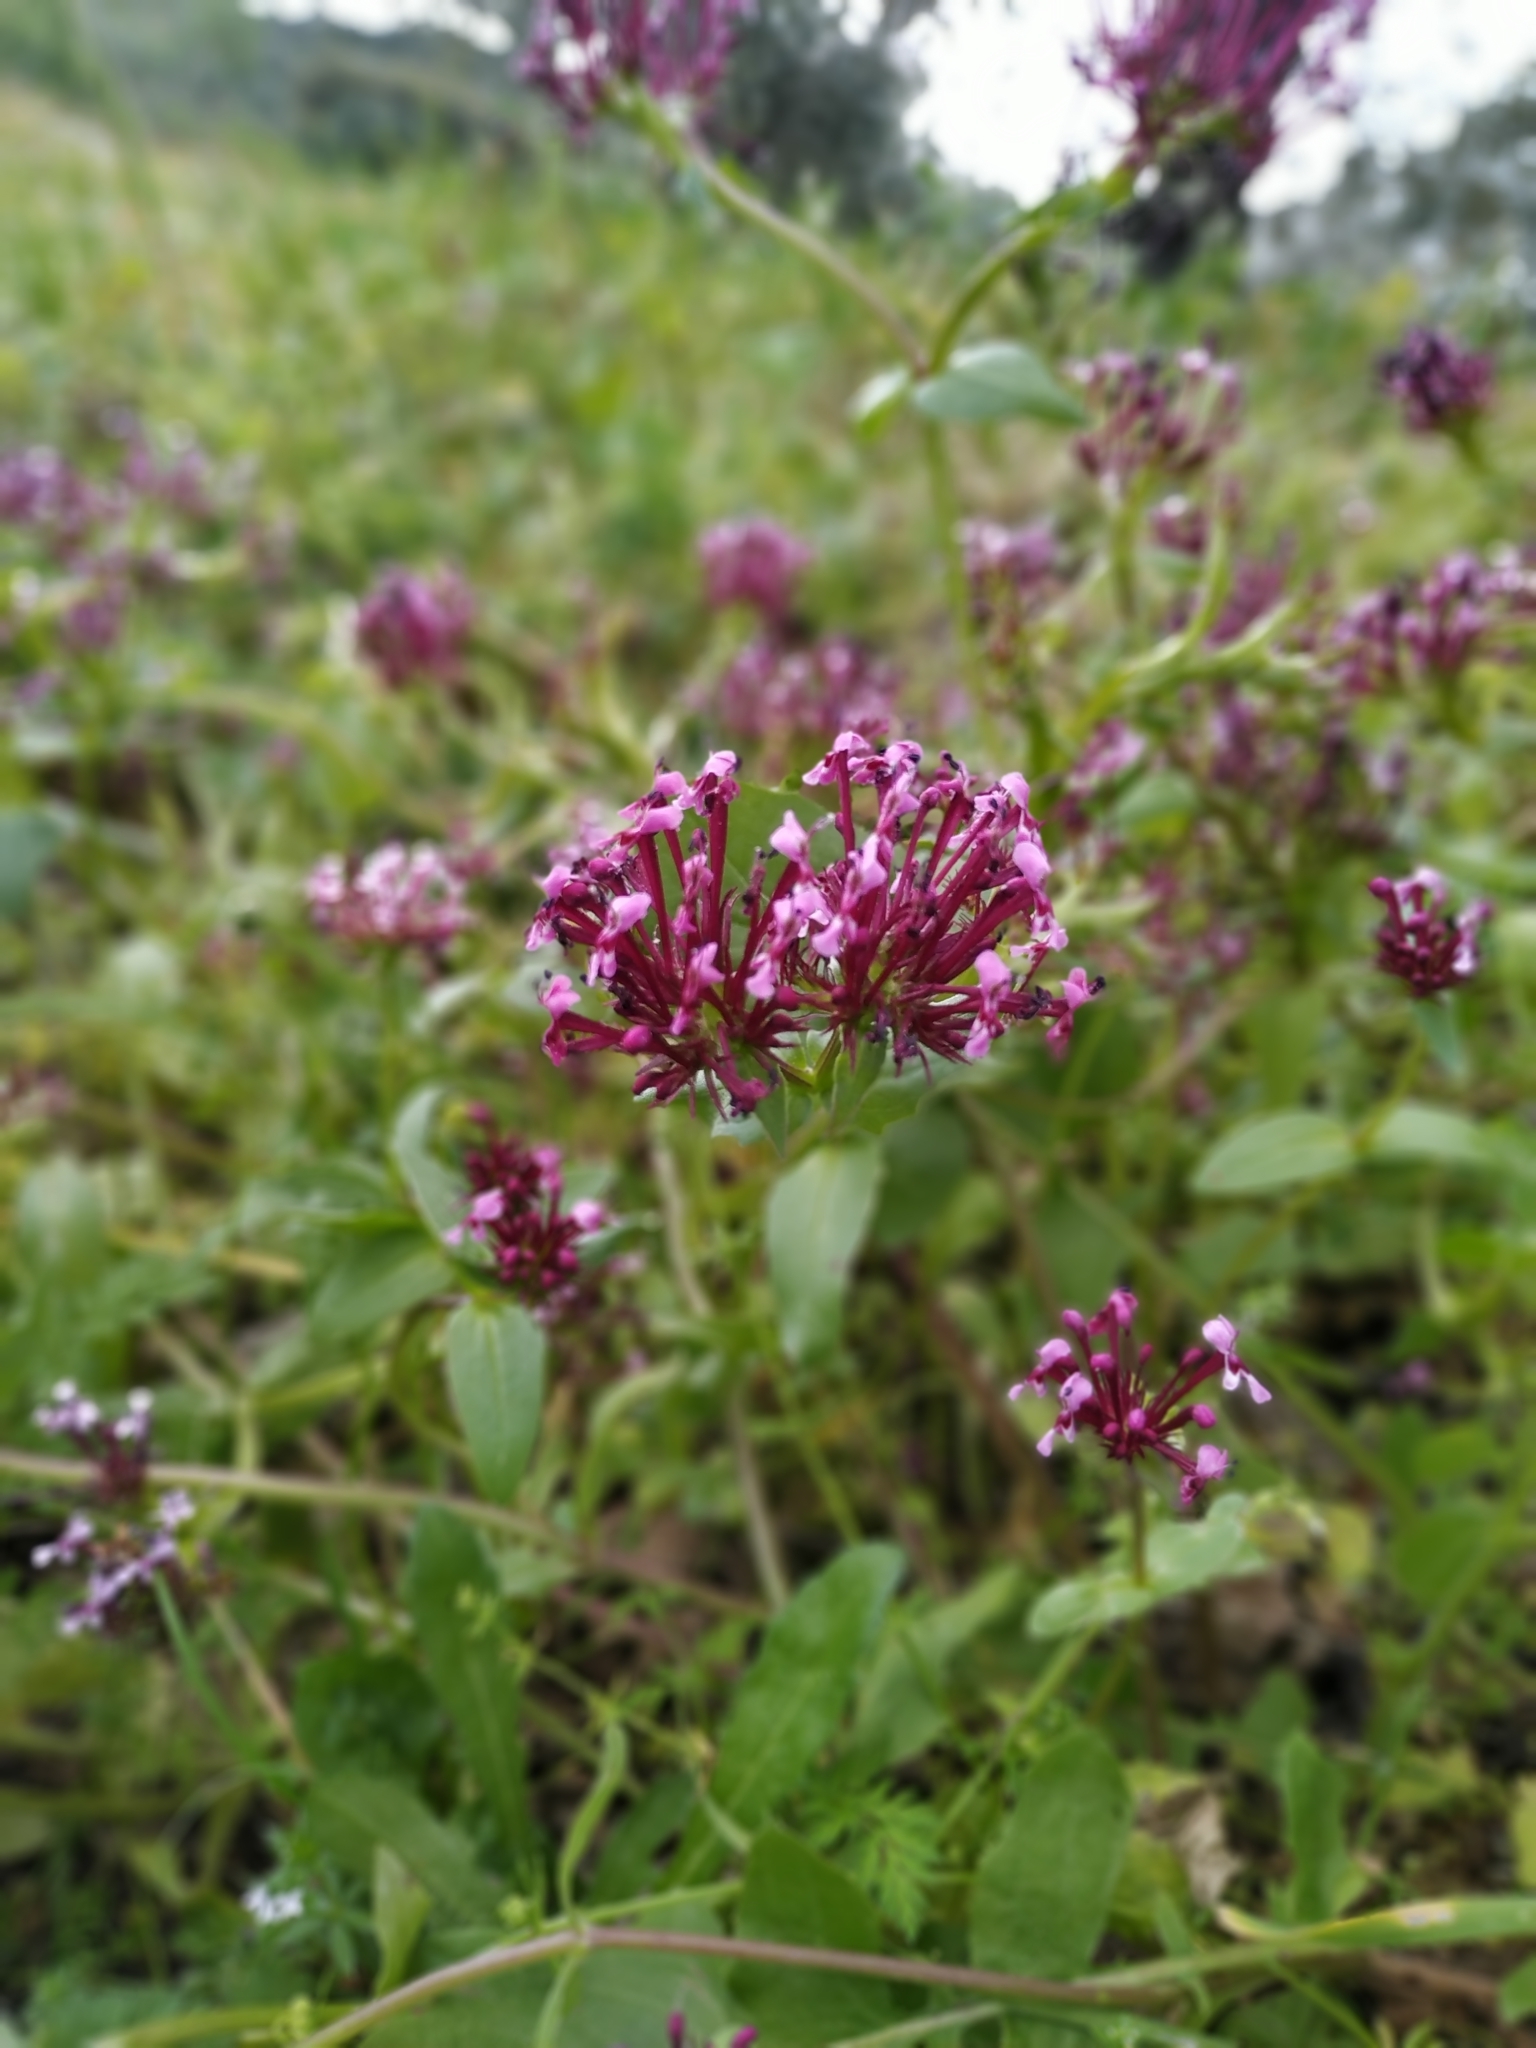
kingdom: Plantae
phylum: Tracheophyta
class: Magnoliopsida
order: Dipsacales
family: Caprifoliaceae
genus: Fedia
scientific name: Fedia cornucopiae
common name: Horn-of-plenty
